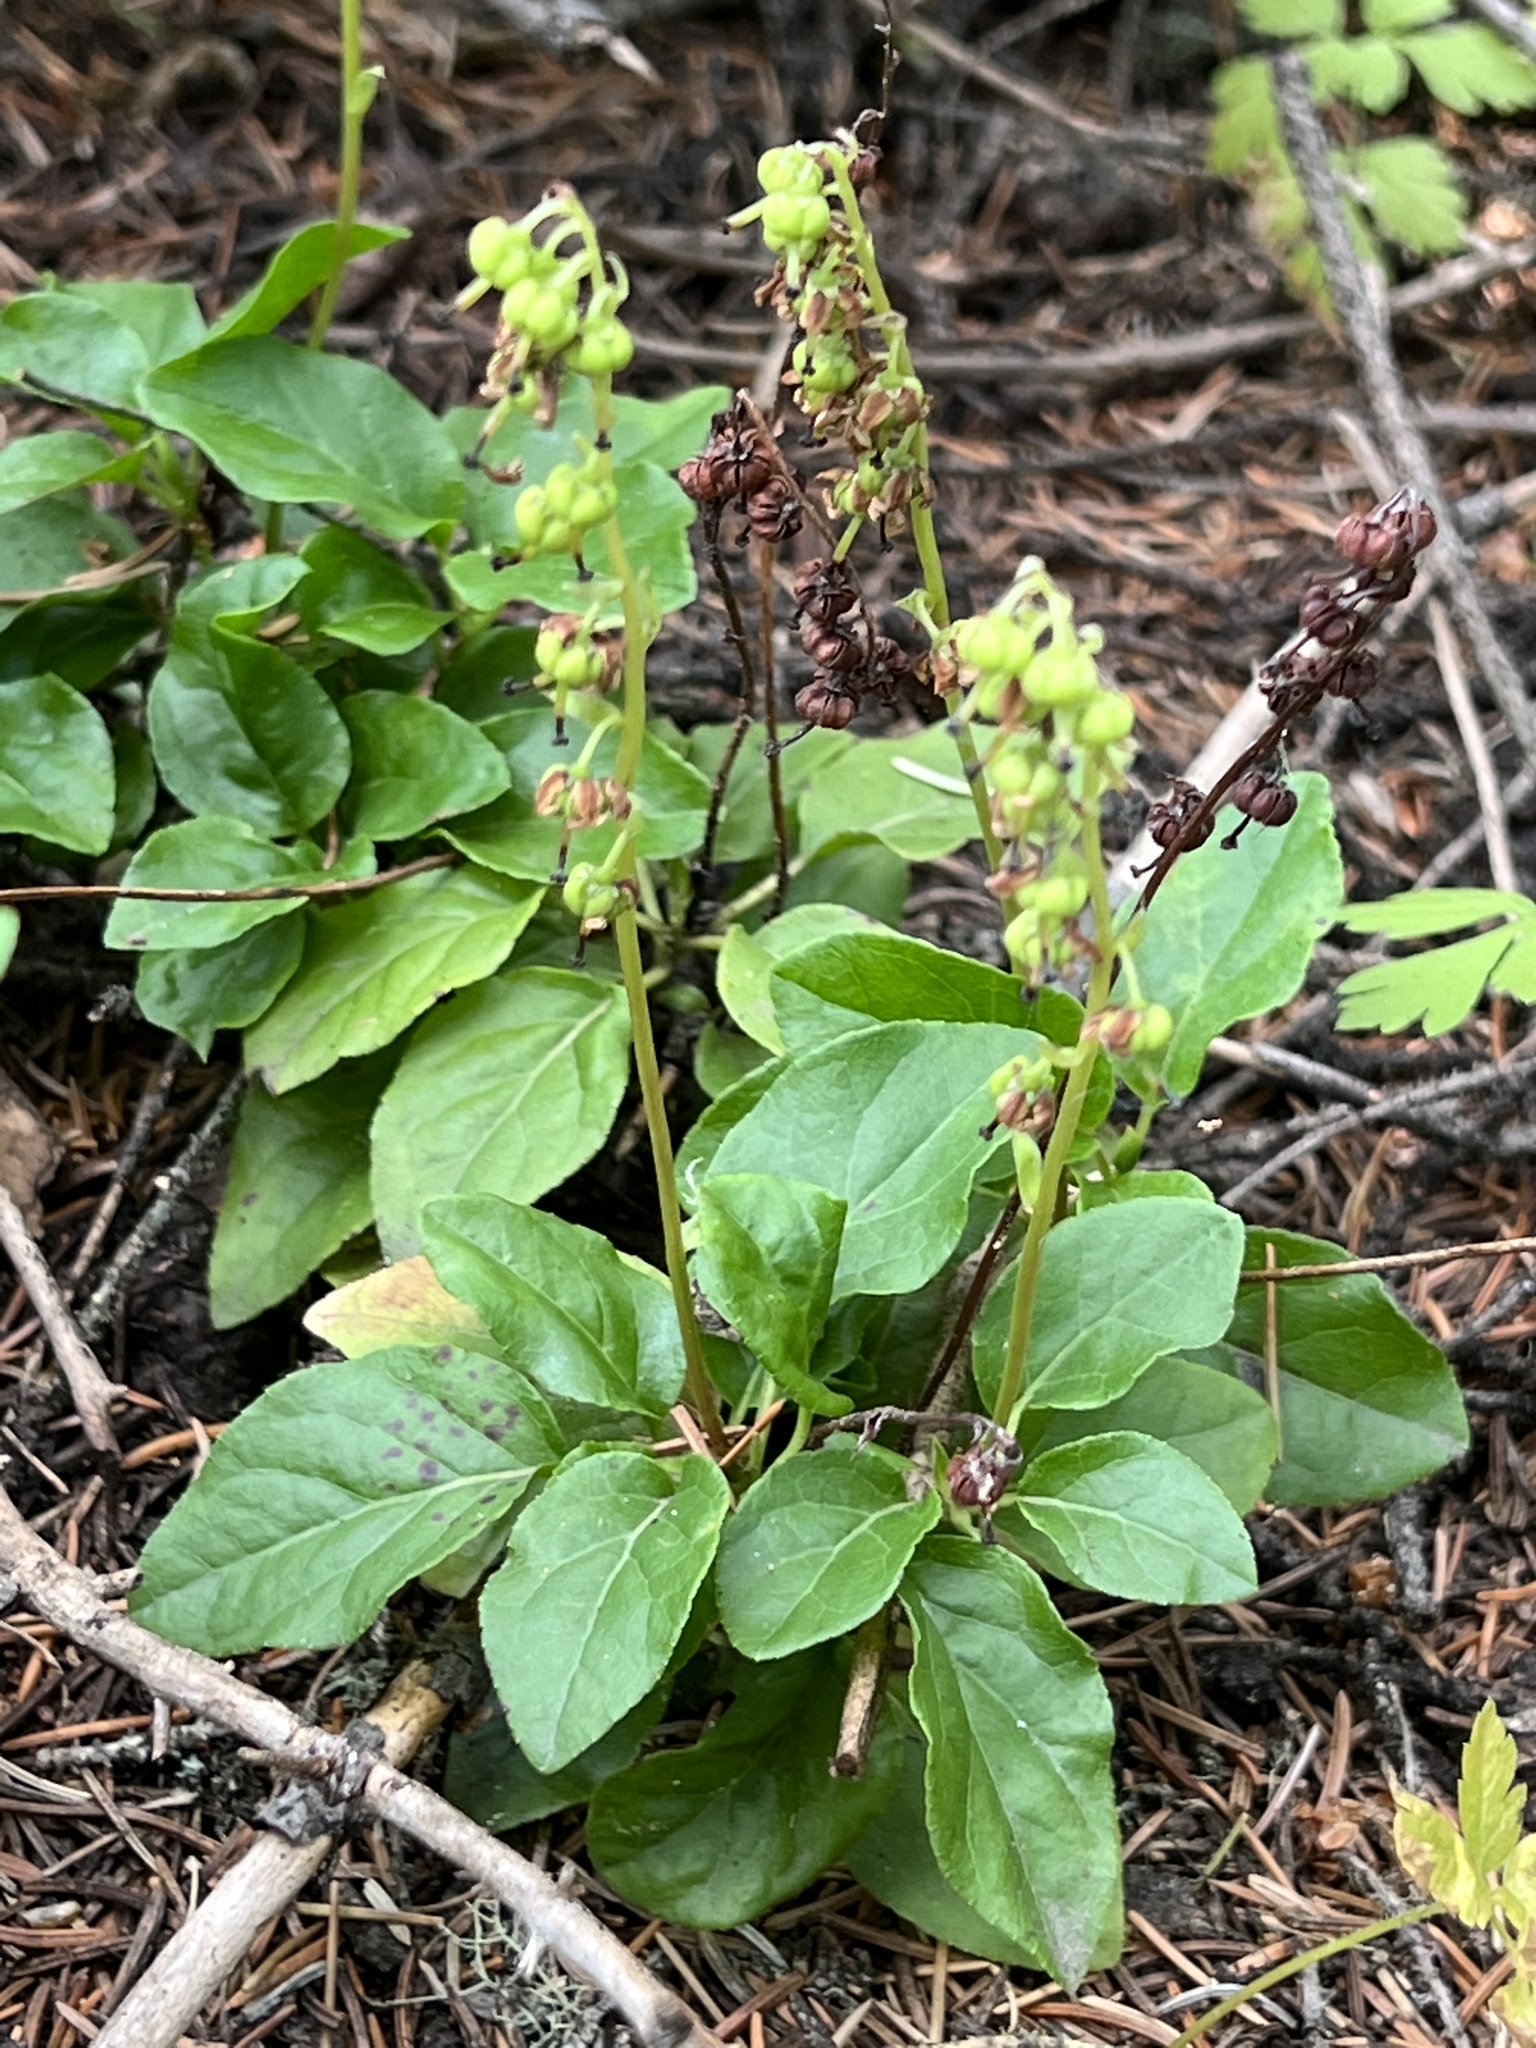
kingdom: Plantae
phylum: Tracheophyta
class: Magnoliopsida
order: Ericales
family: Ericaceae
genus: Orthilia
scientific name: Orthilia secunda
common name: One-sided orthilia
